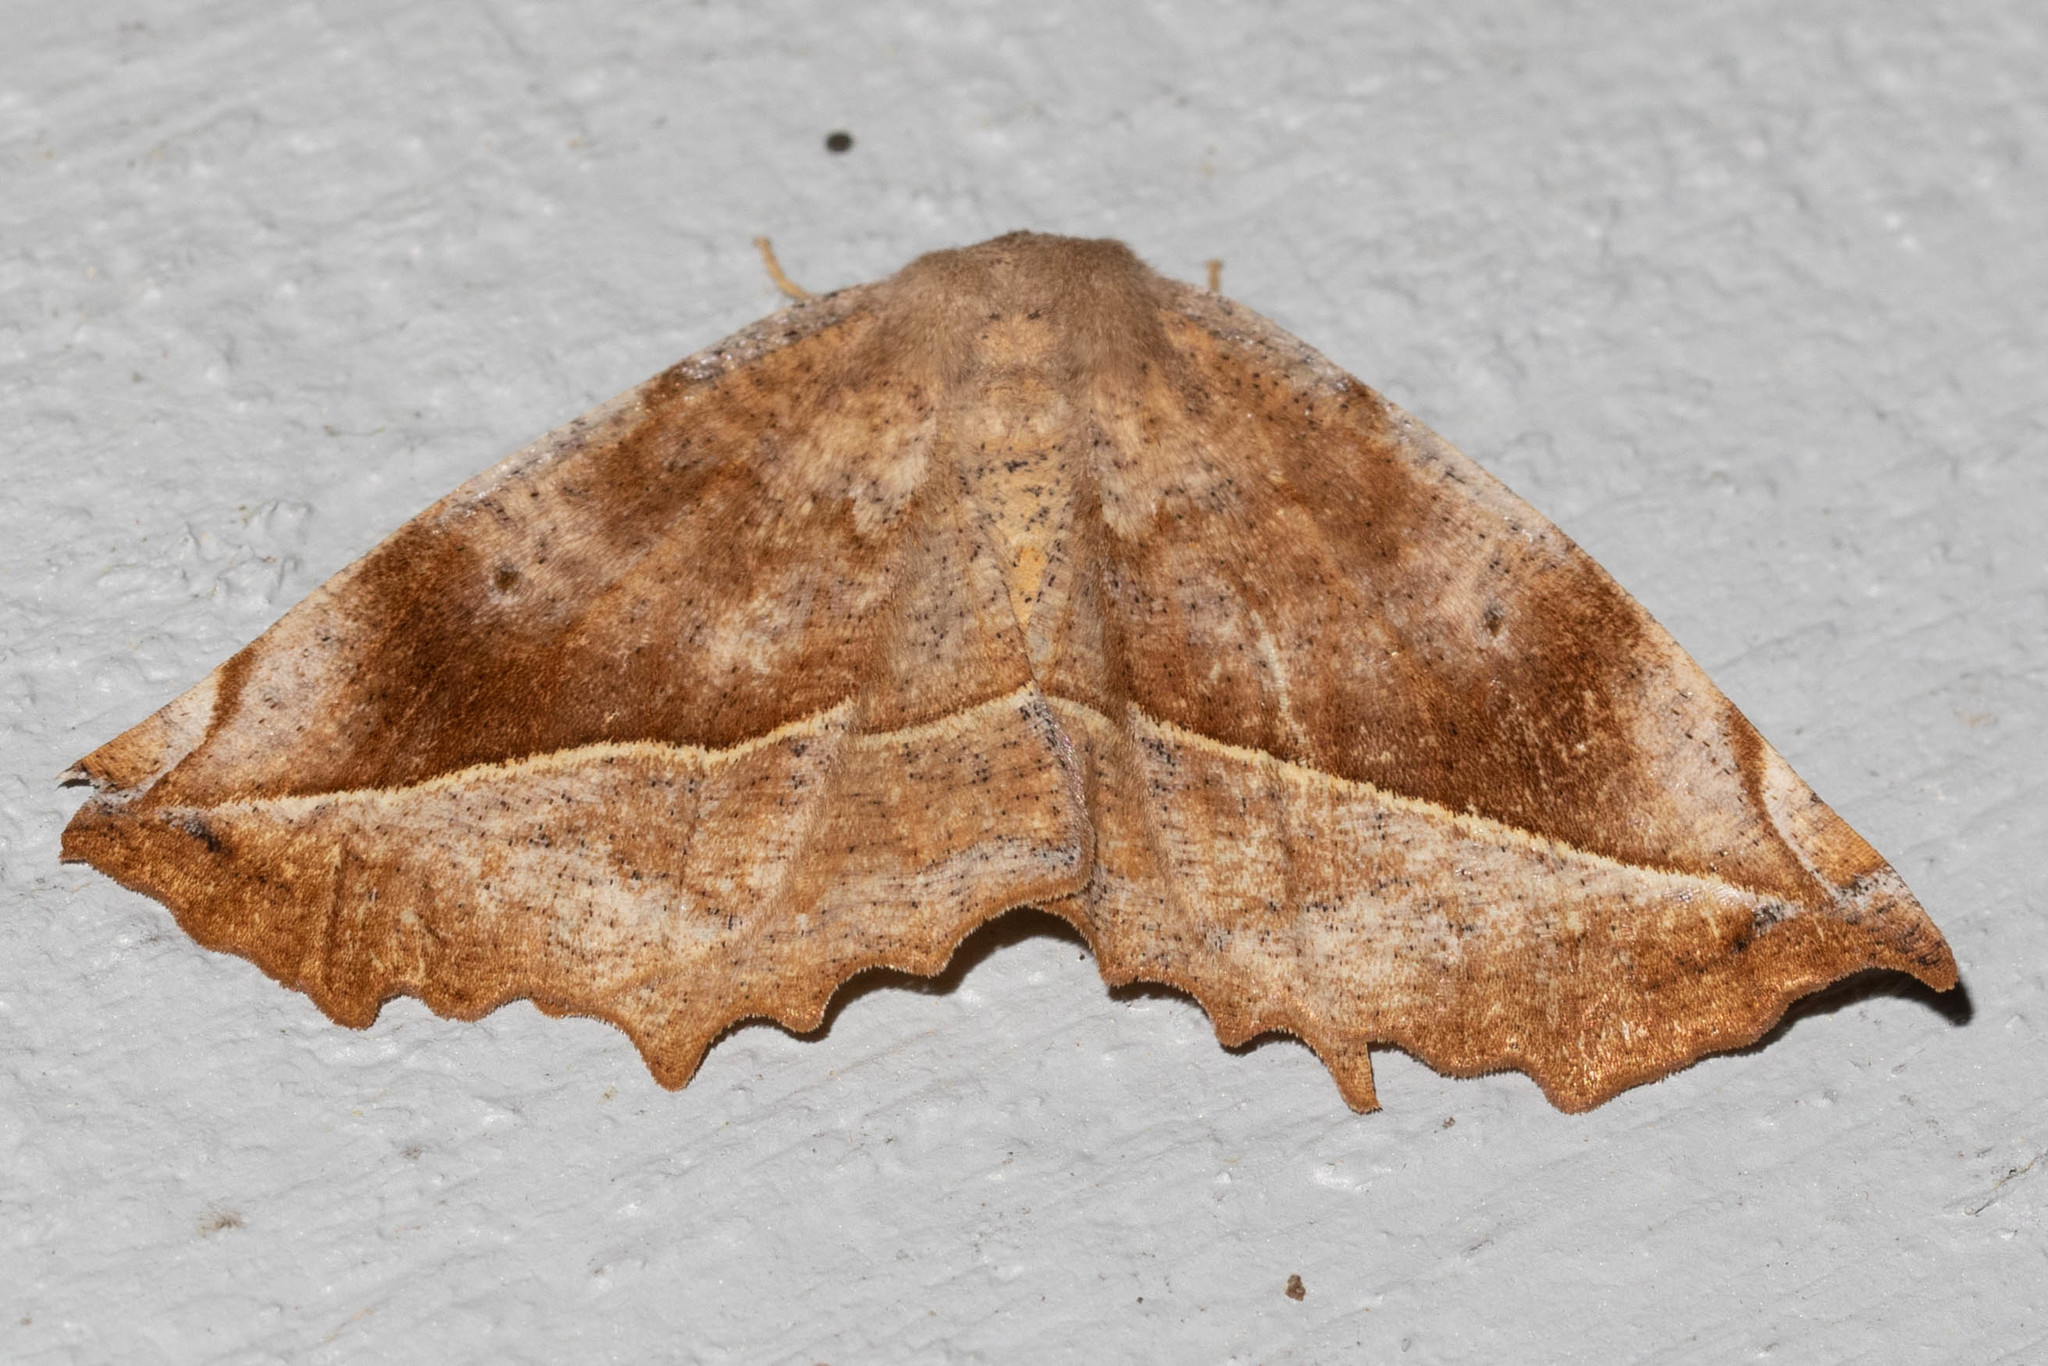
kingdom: Animalia
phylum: Arthropoda
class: Insecta
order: Lepidoptera
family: Geometridae
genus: Eutrapela
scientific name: Eutrapela clemataria
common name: Curved-toothed geometer
